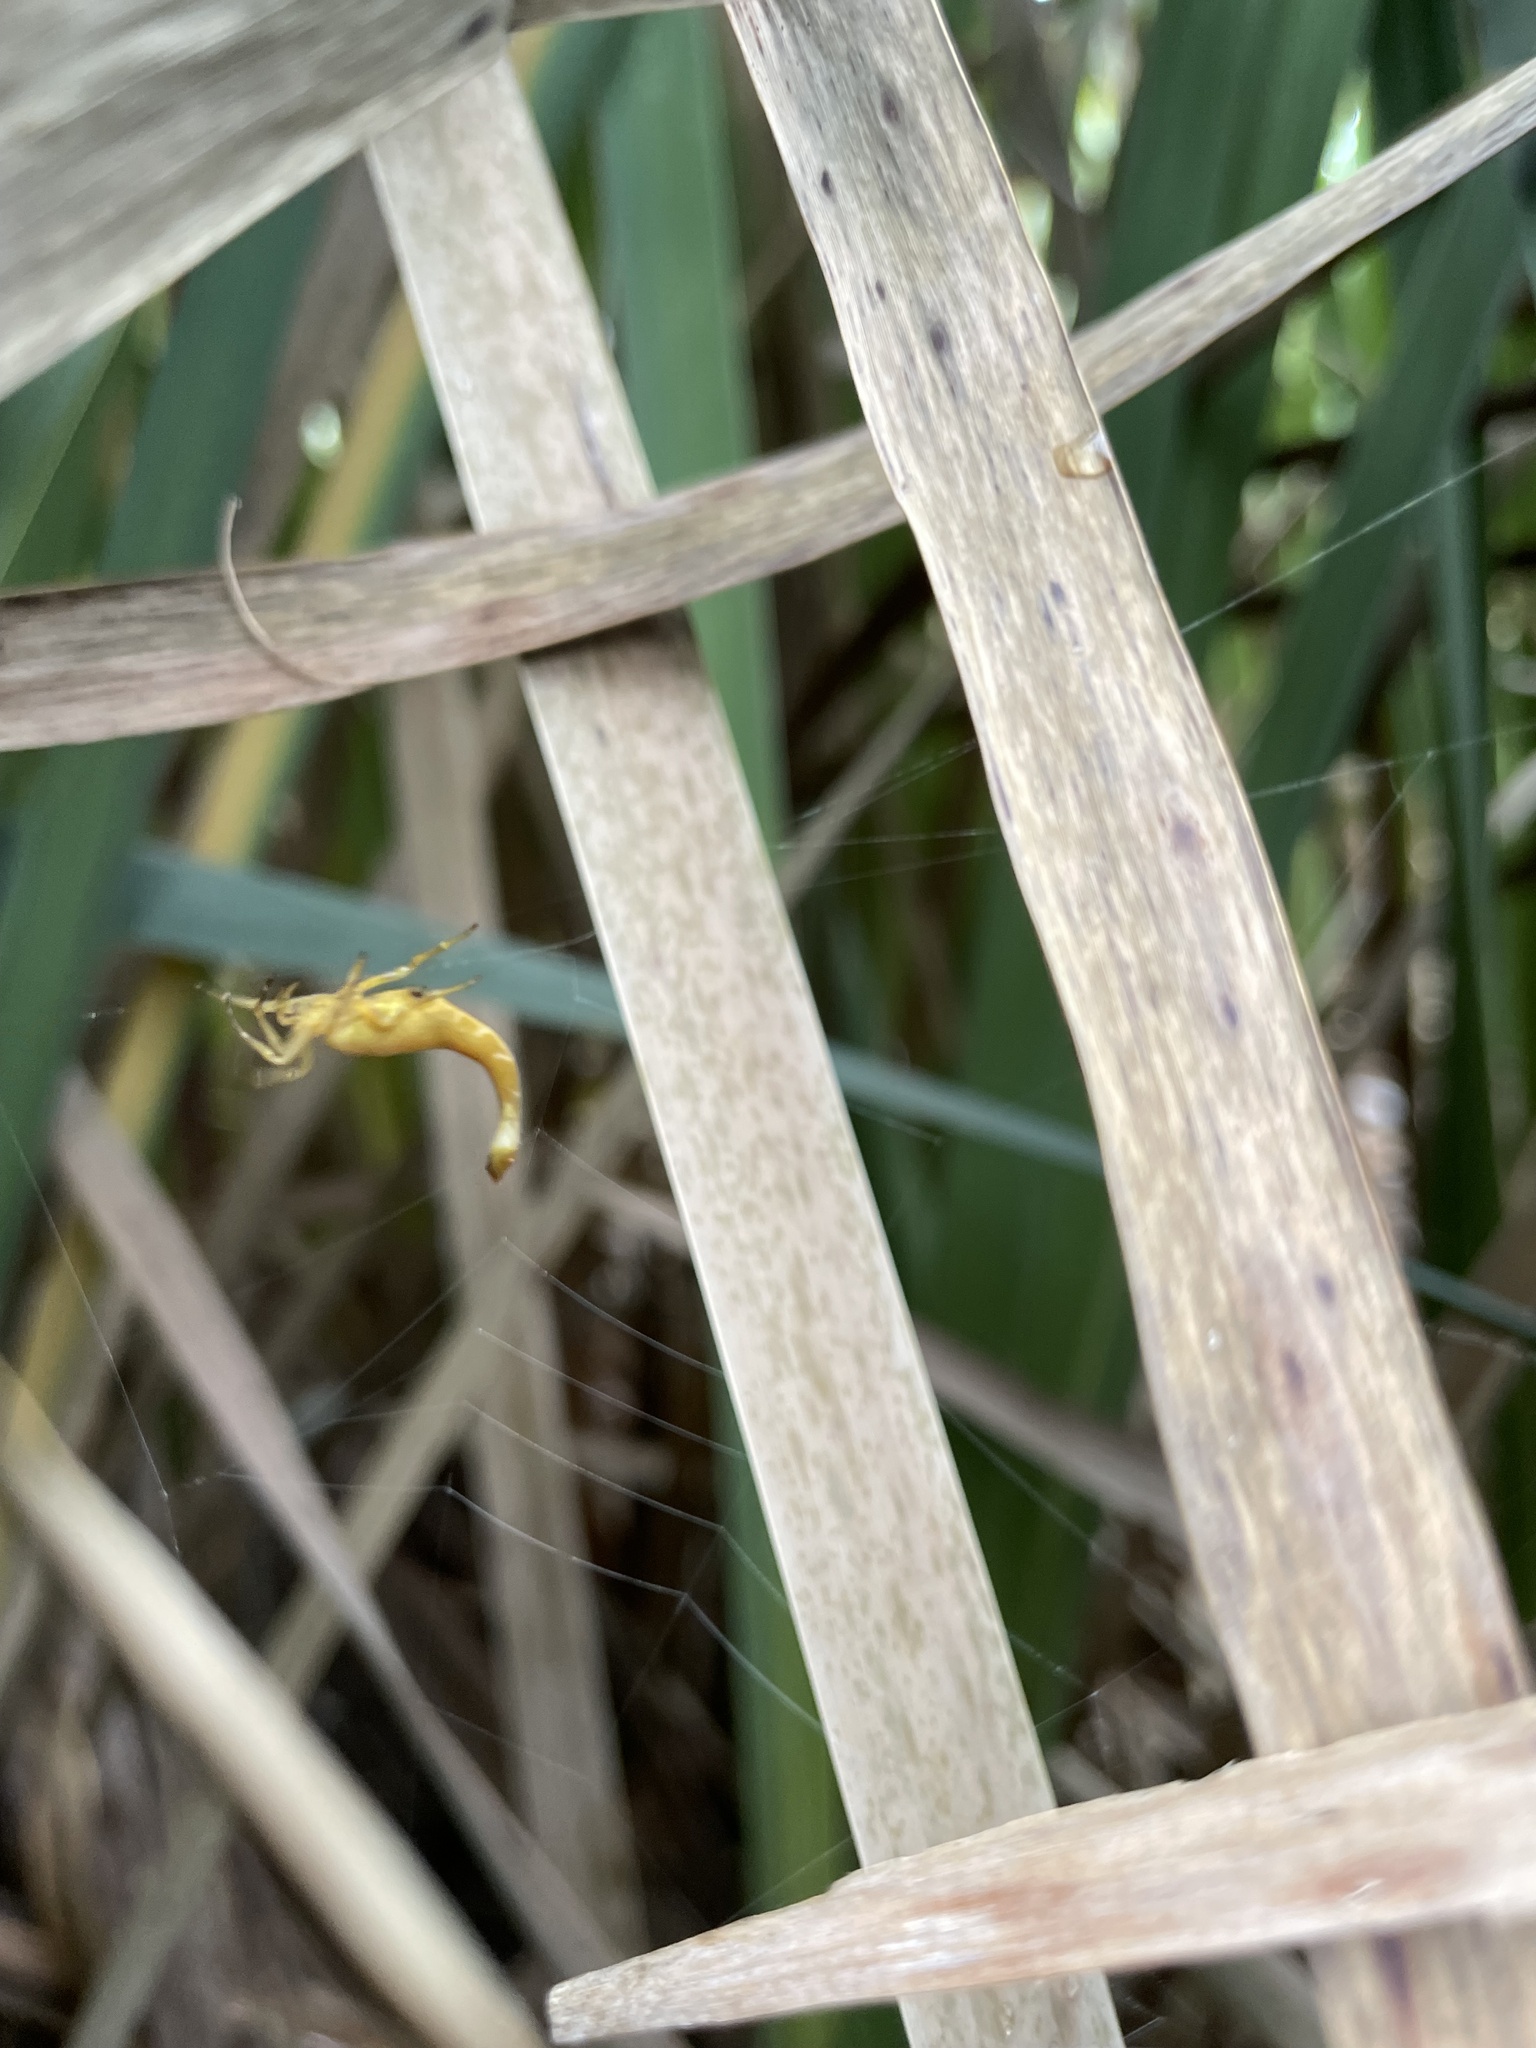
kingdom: Animalia
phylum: Arthropoda
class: Arachnida
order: Araneae
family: Araneidae
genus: Arachnura
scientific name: Arachnura feredayi
